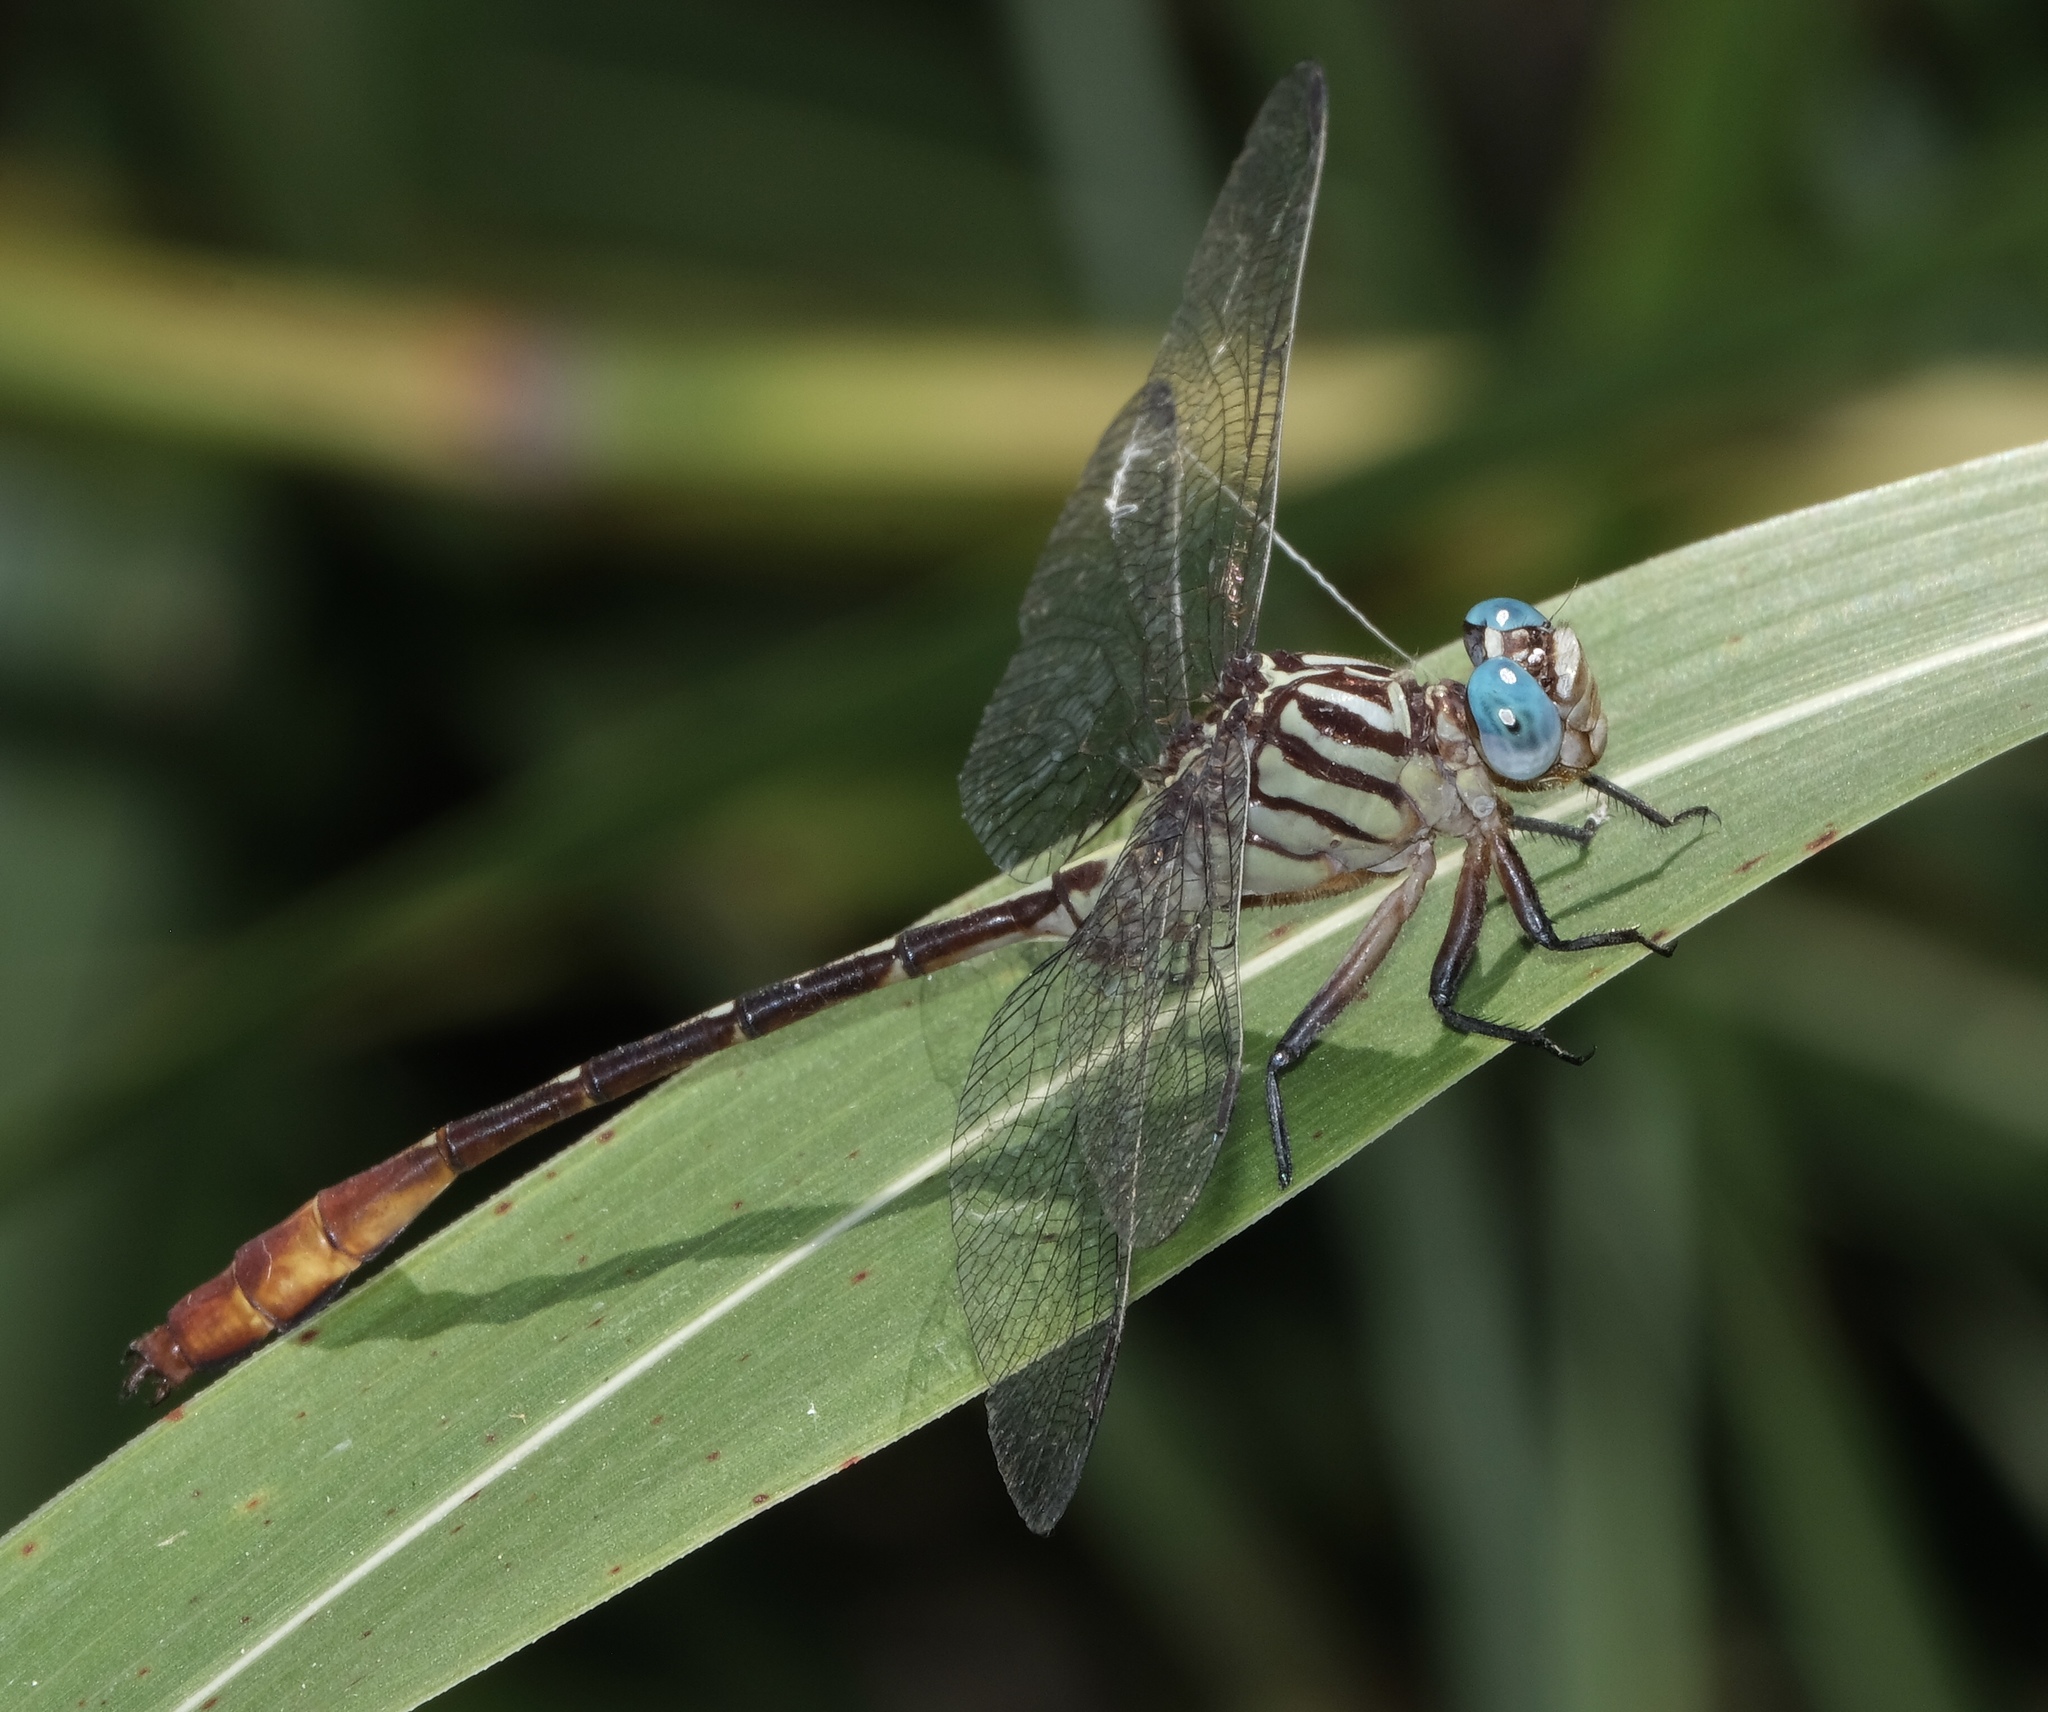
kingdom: Animalia
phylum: Arthropoda
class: Insecta
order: Odonata
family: Gomphidae
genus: Stylurus
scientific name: Stylurus plagiatus
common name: Russet-tipped clubtail
